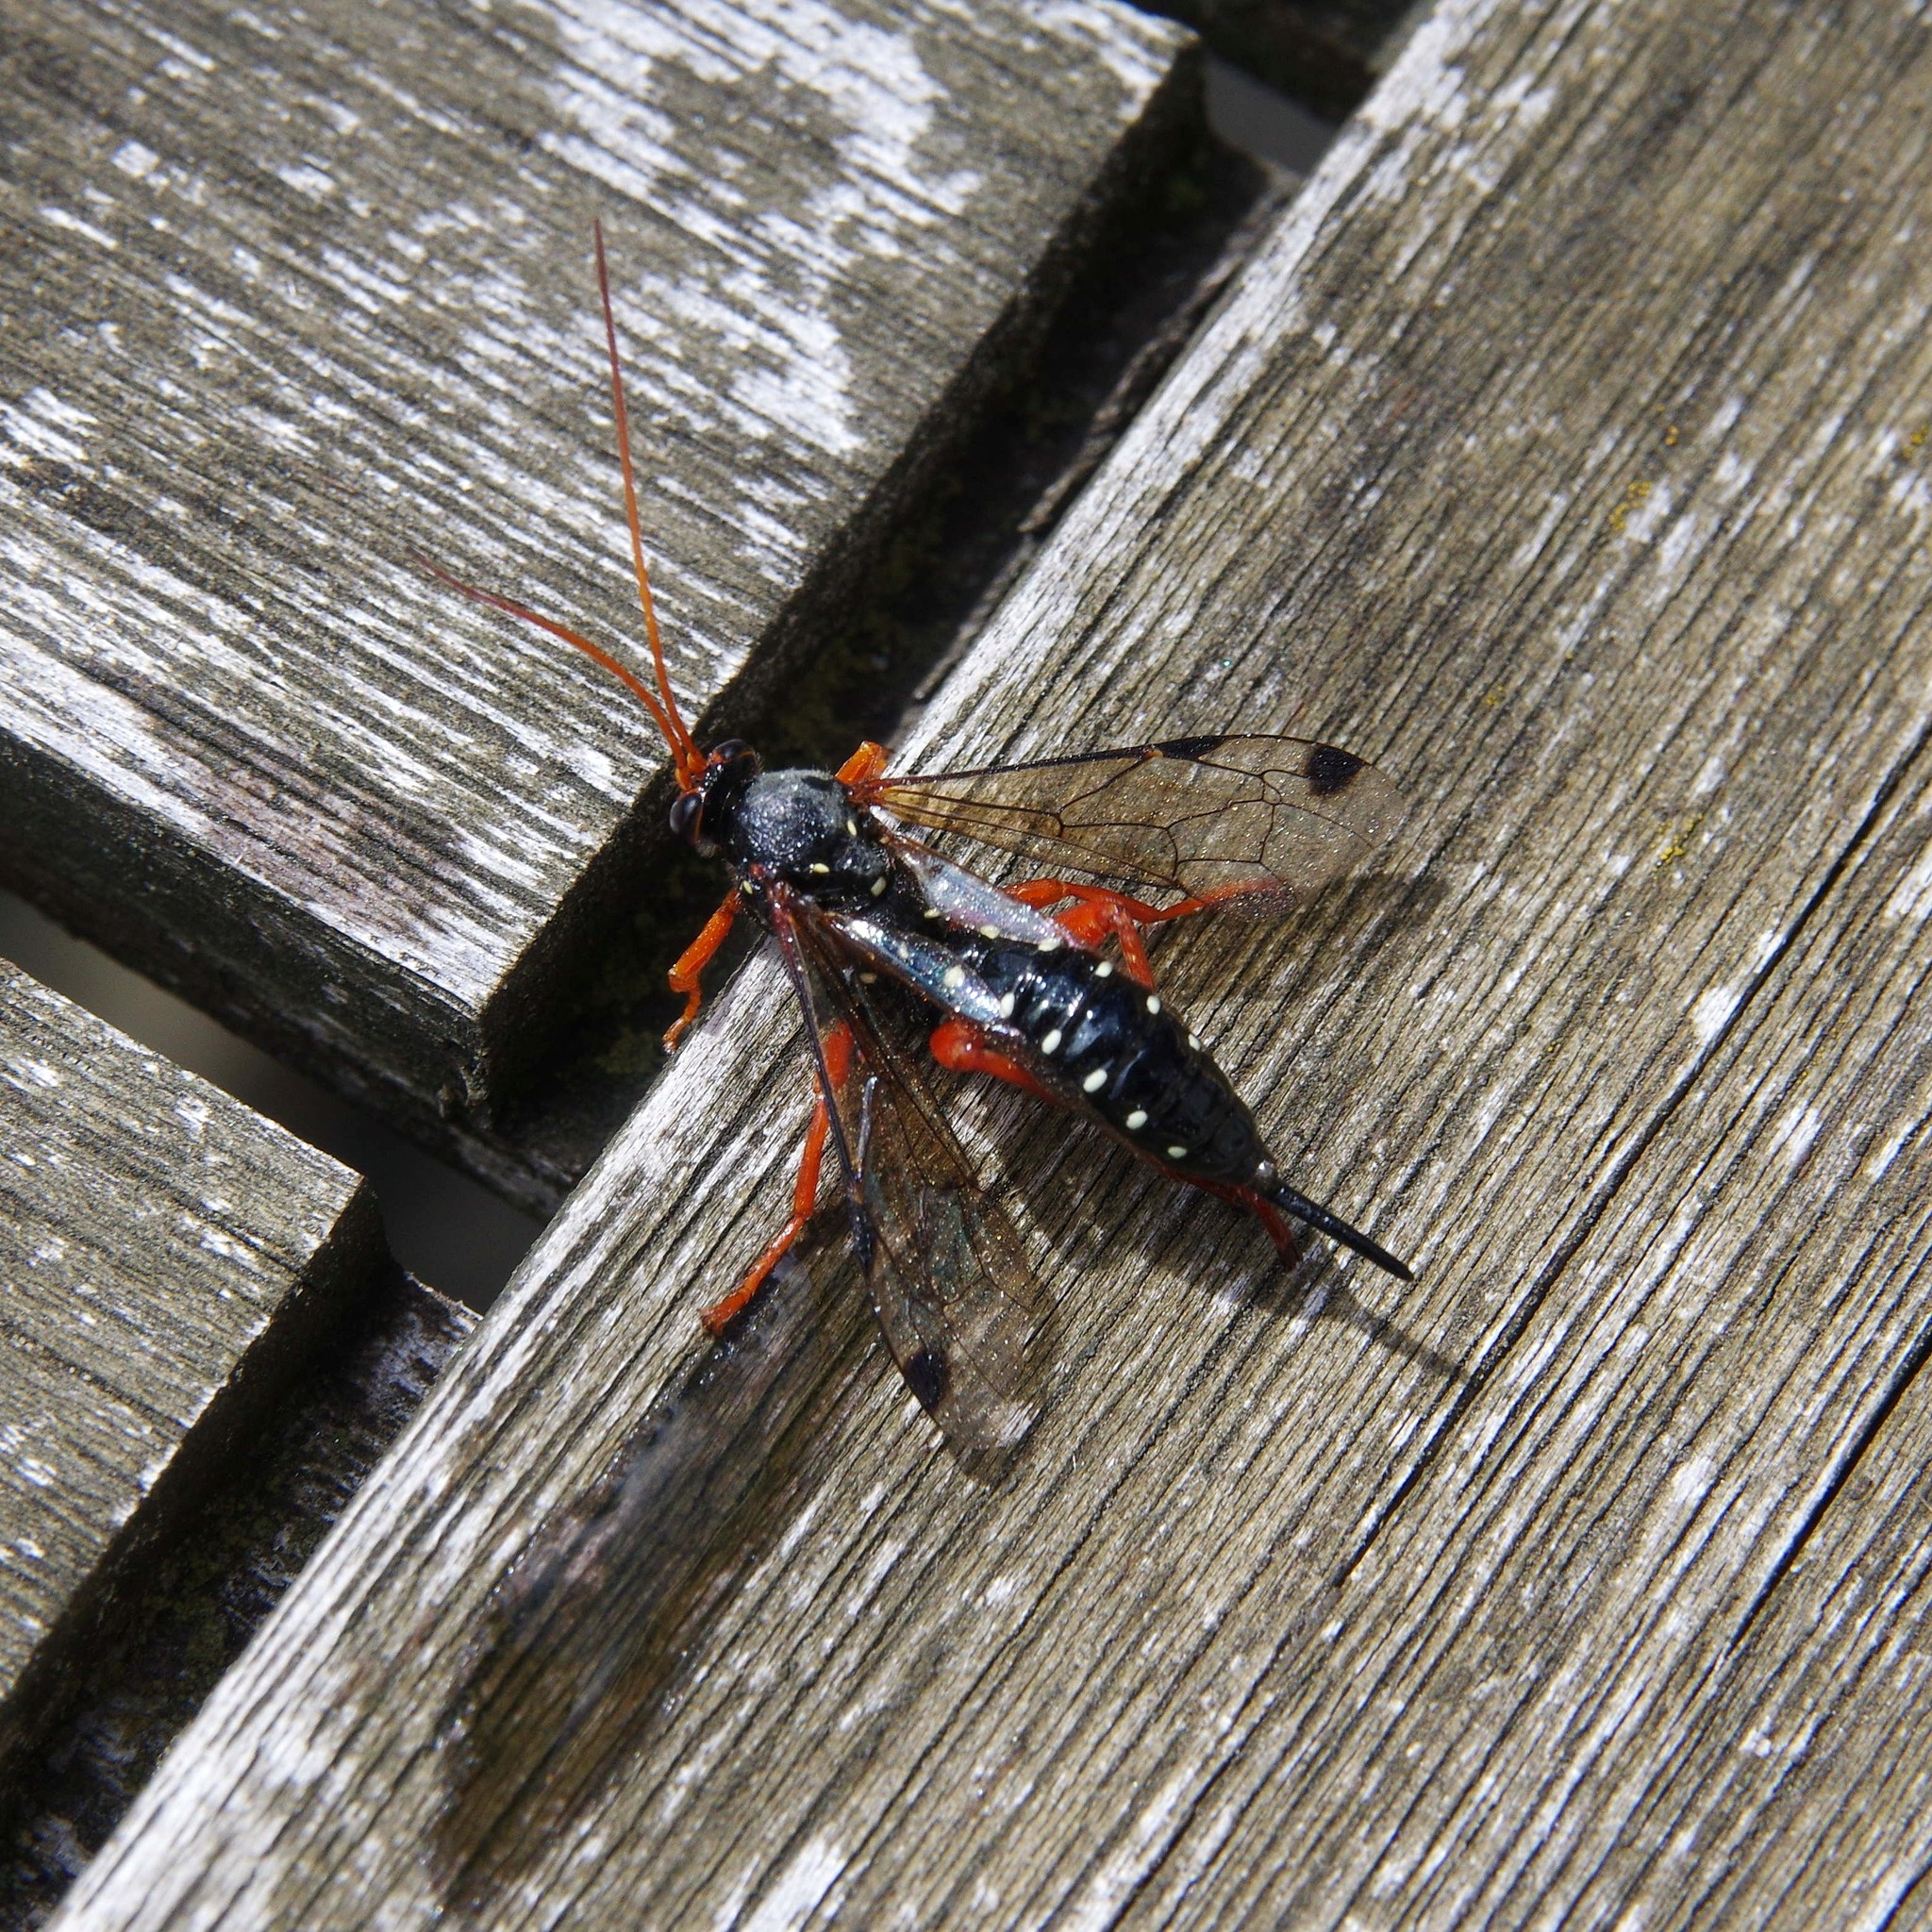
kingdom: Animalia
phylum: Arthropoda
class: Insecta
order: Hymenoptera
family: Ichneumonidae
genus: Echthromorpha
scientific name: Echthromorpha intricatoria
